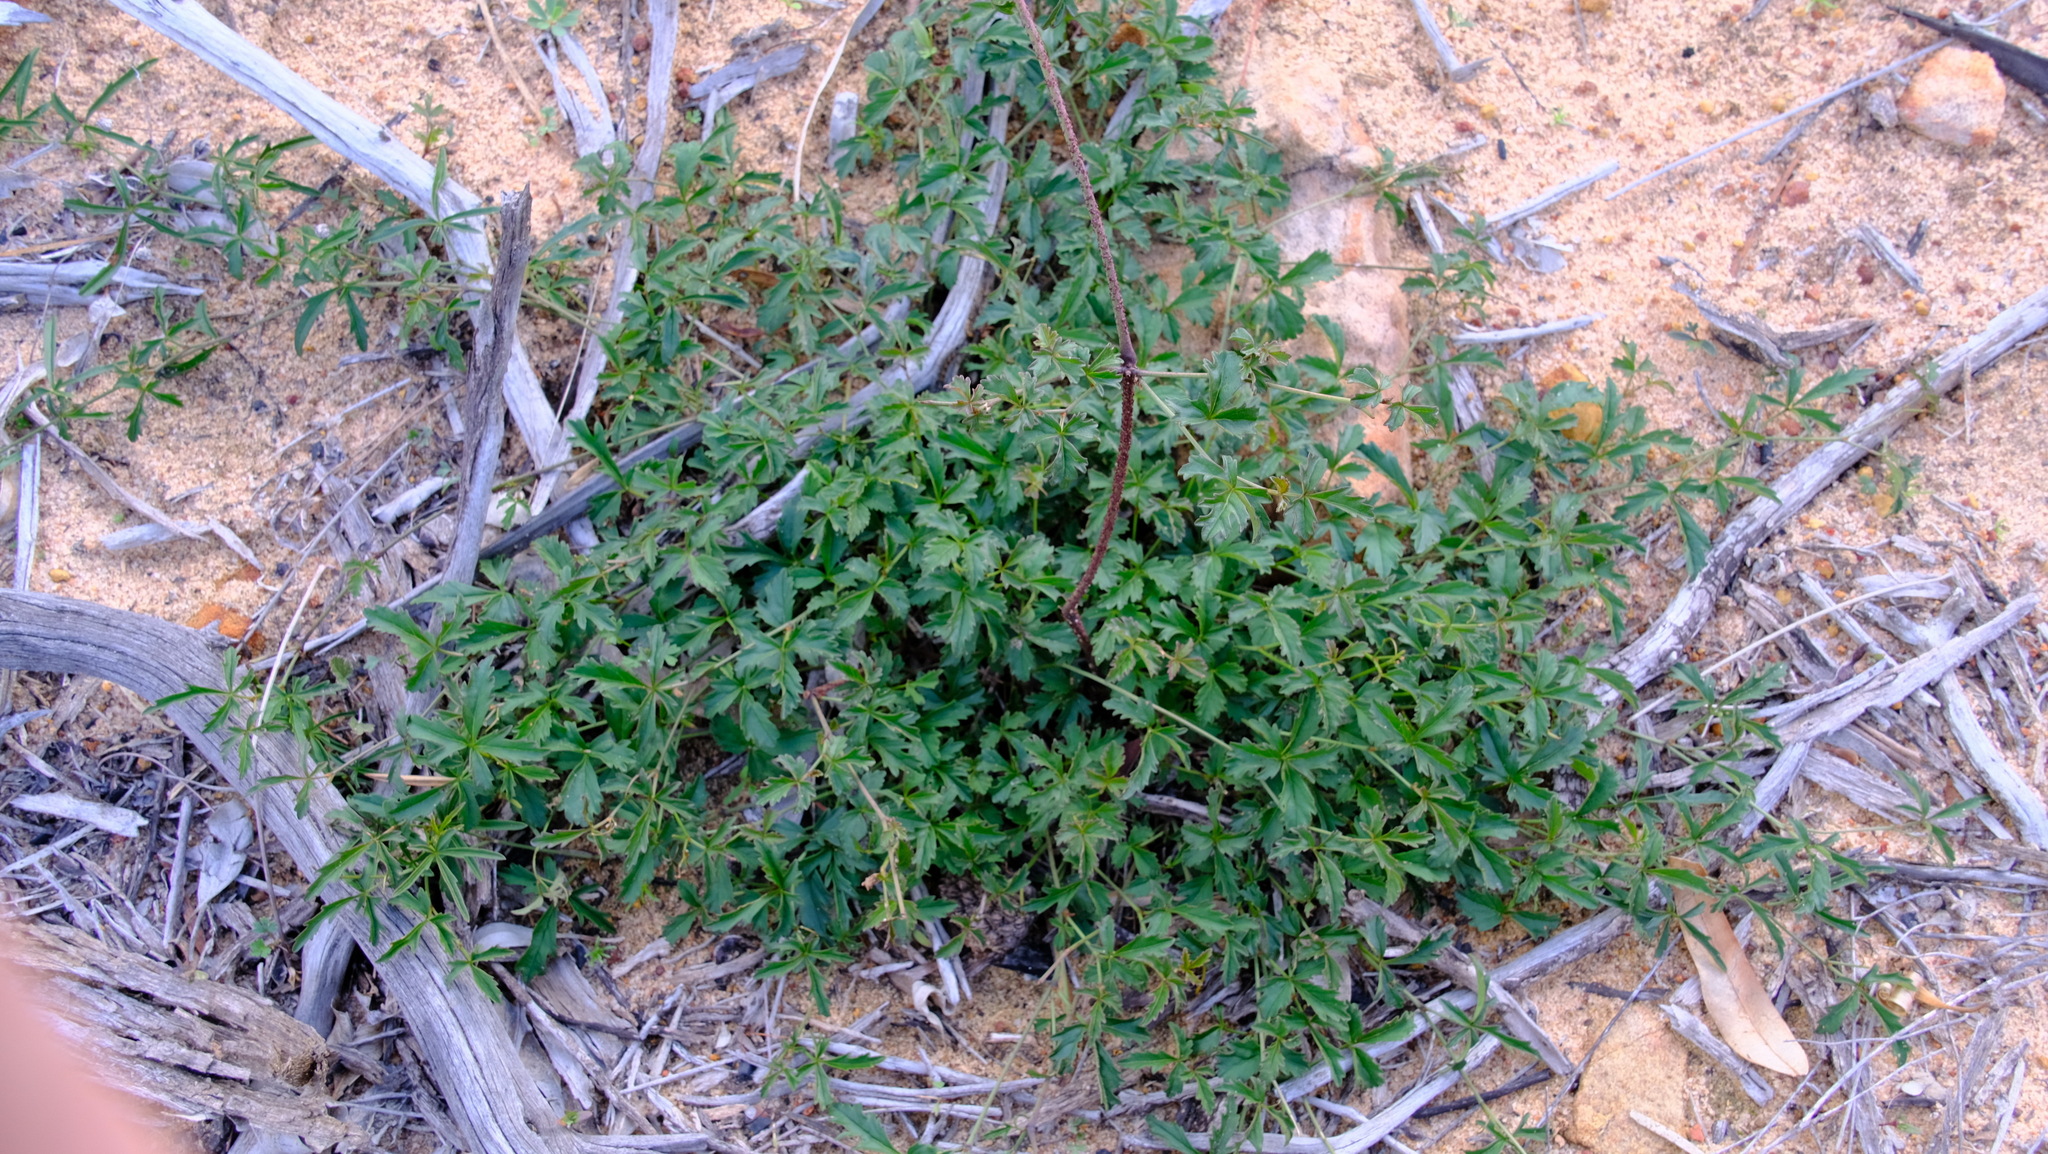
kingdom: Plantae
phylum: Tracheophyta
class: Magnoliopsida
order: Vitales
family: Vitaceae
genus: Clematicissus
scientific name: Clematicissus angustissima
